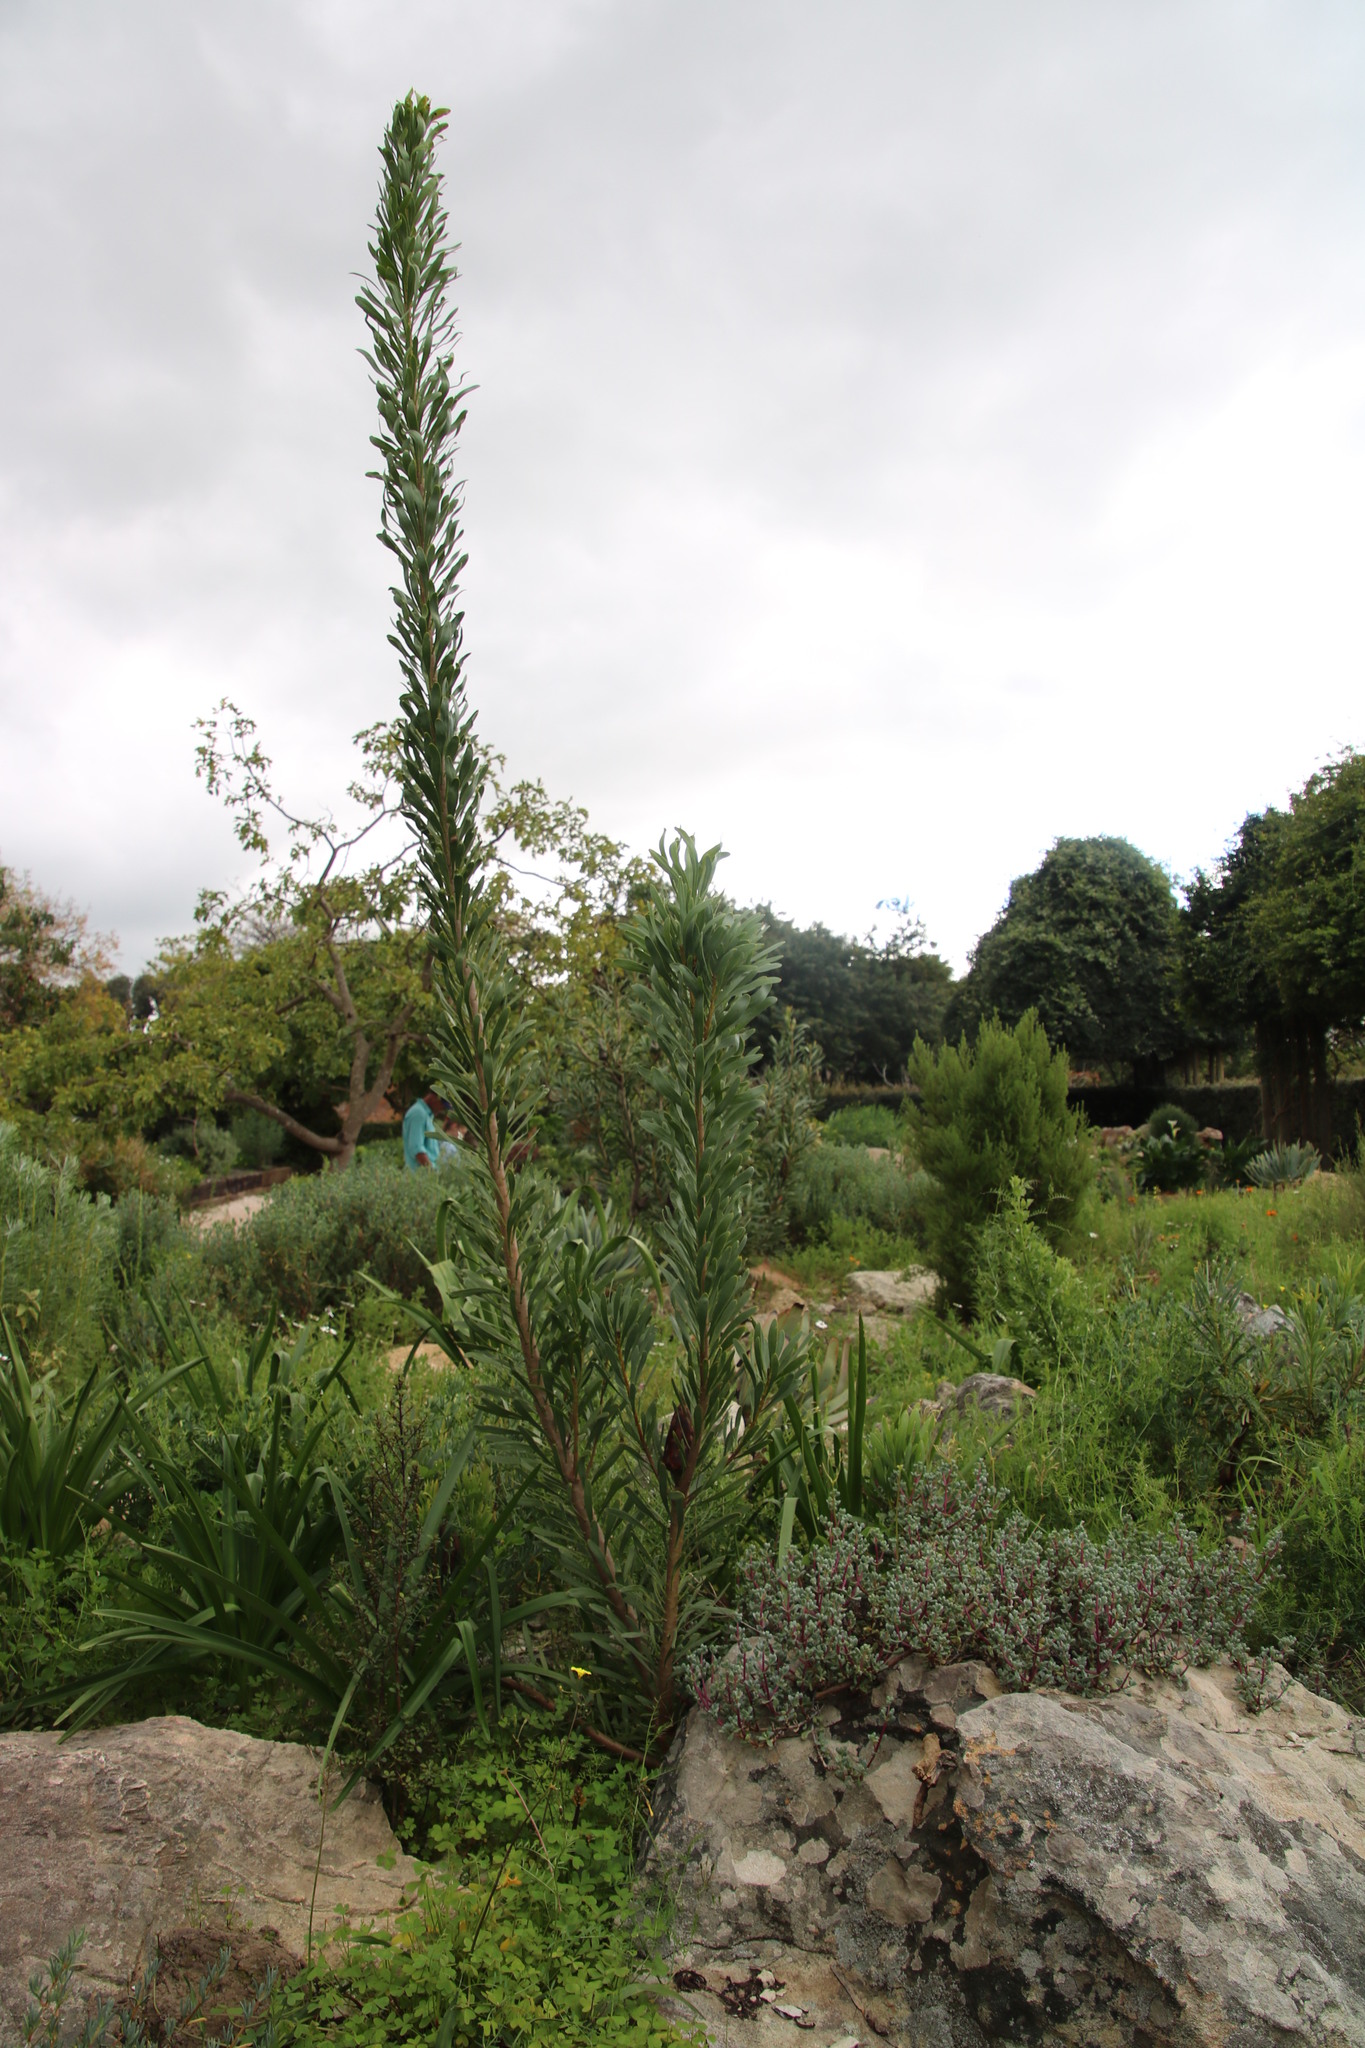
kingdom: Plantae
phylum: Tracheophyta
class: Magnoliopsida
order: Proteales
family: Proteaceae
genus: Protea
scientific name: Protea repens
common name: Sugarbush
